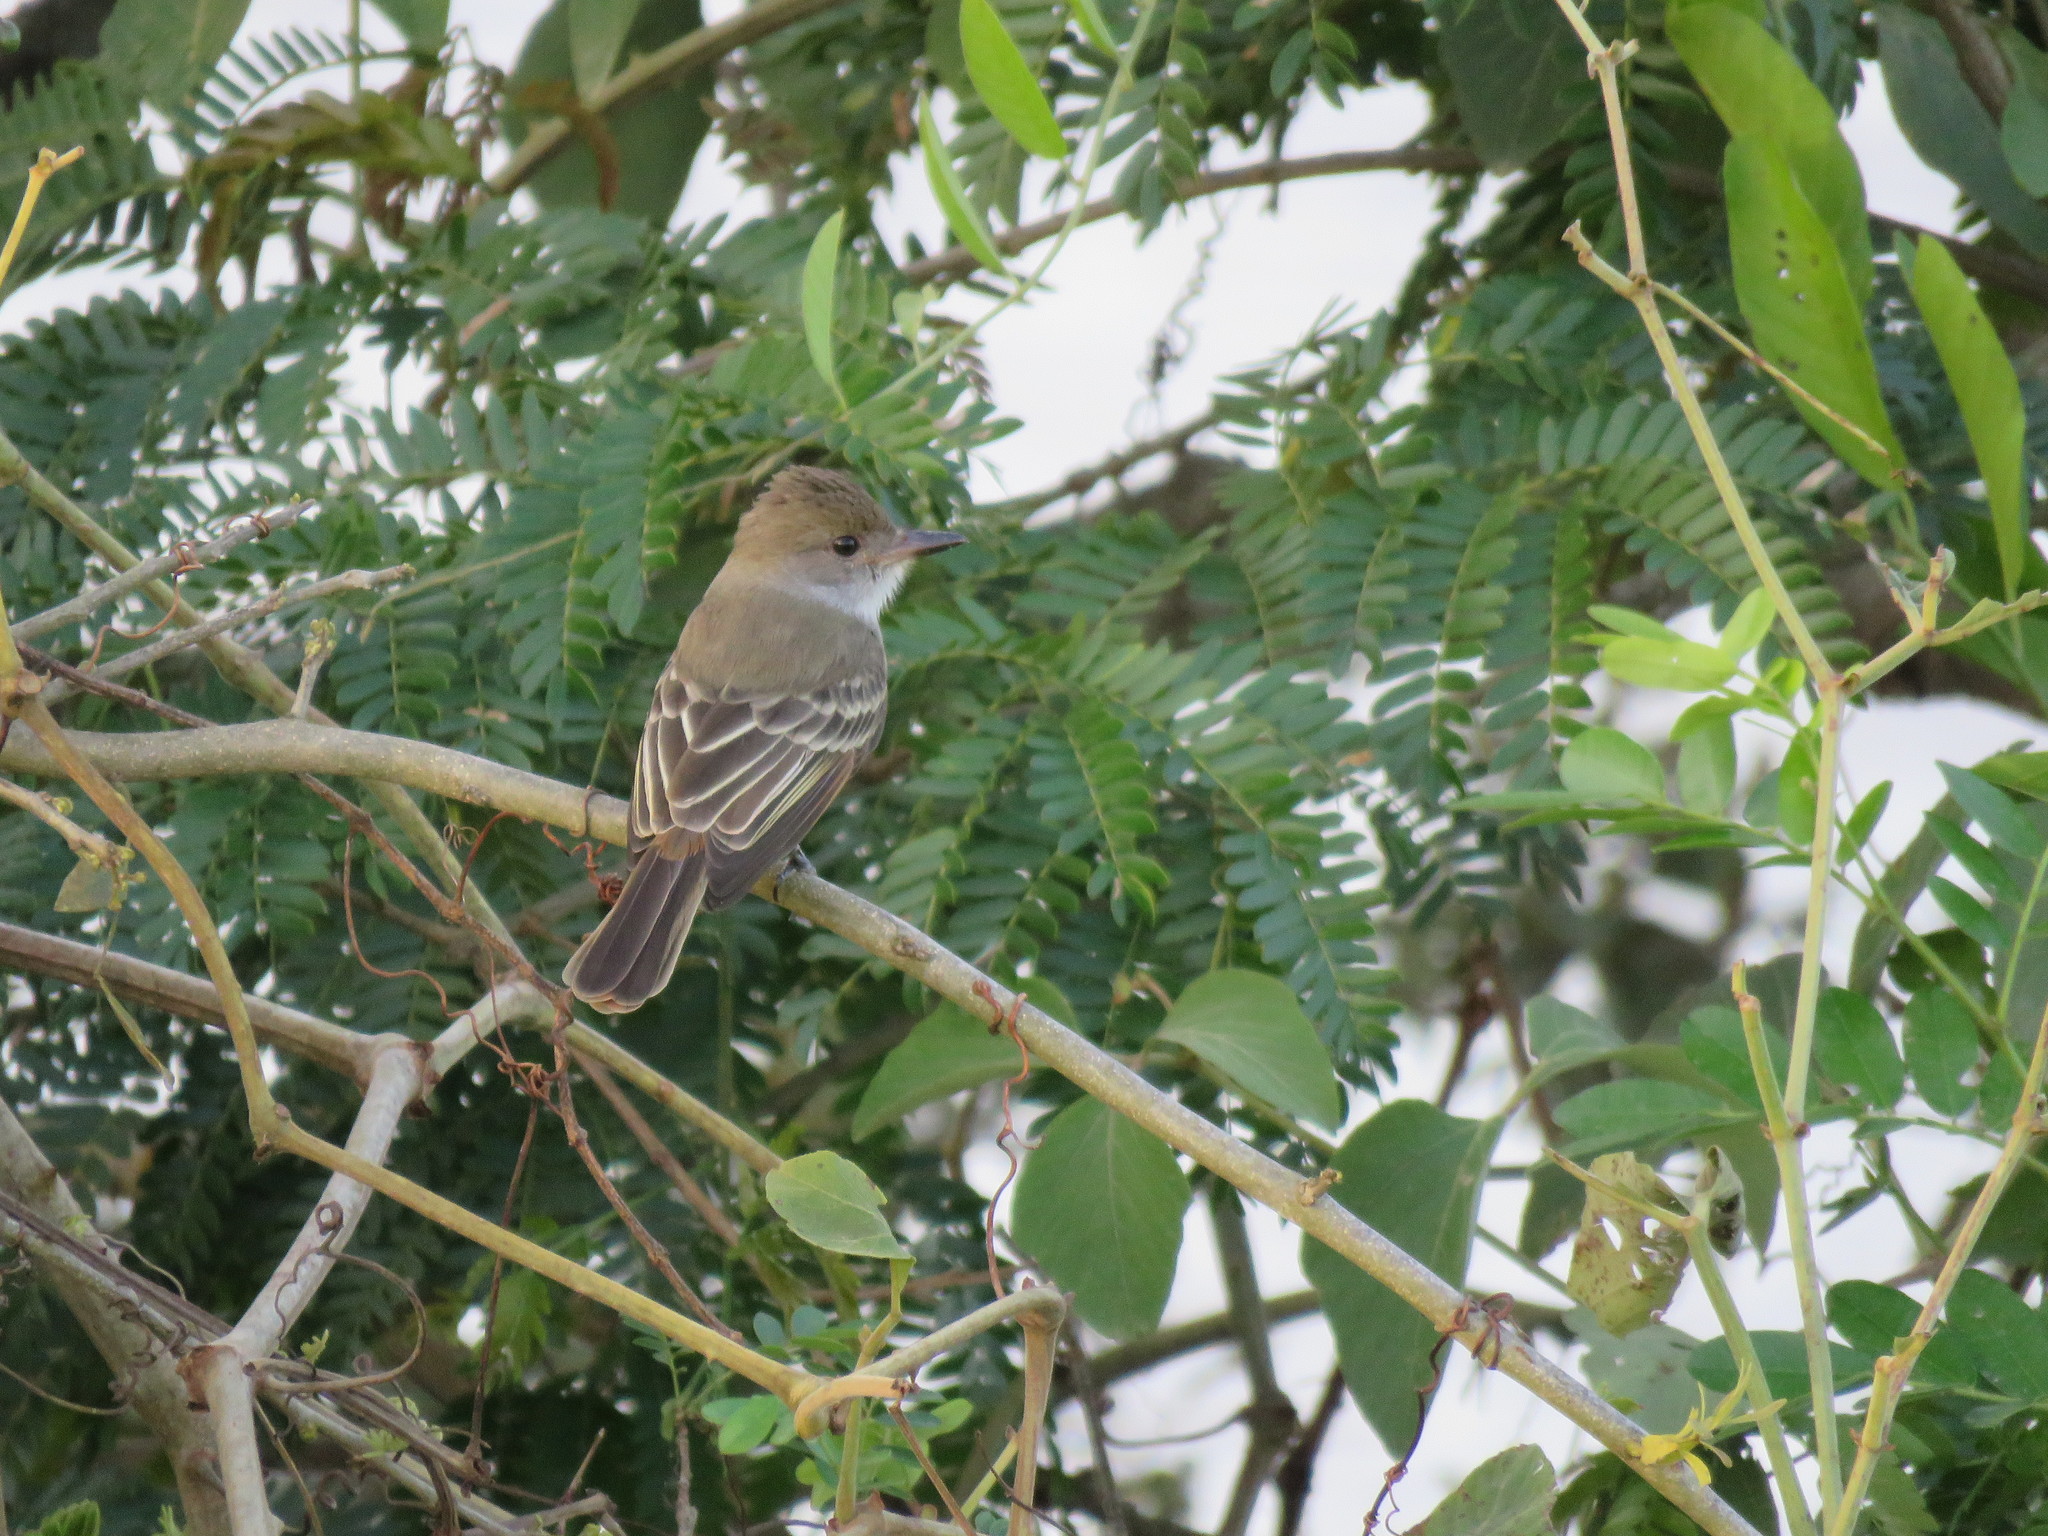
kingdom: Animalia
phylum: Chordata
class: Aves
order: Passeriformes
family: Tyrannidae
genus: Myiarchus
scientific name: Myiarchus tyrannulus
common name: Brown-crested flycatcher
